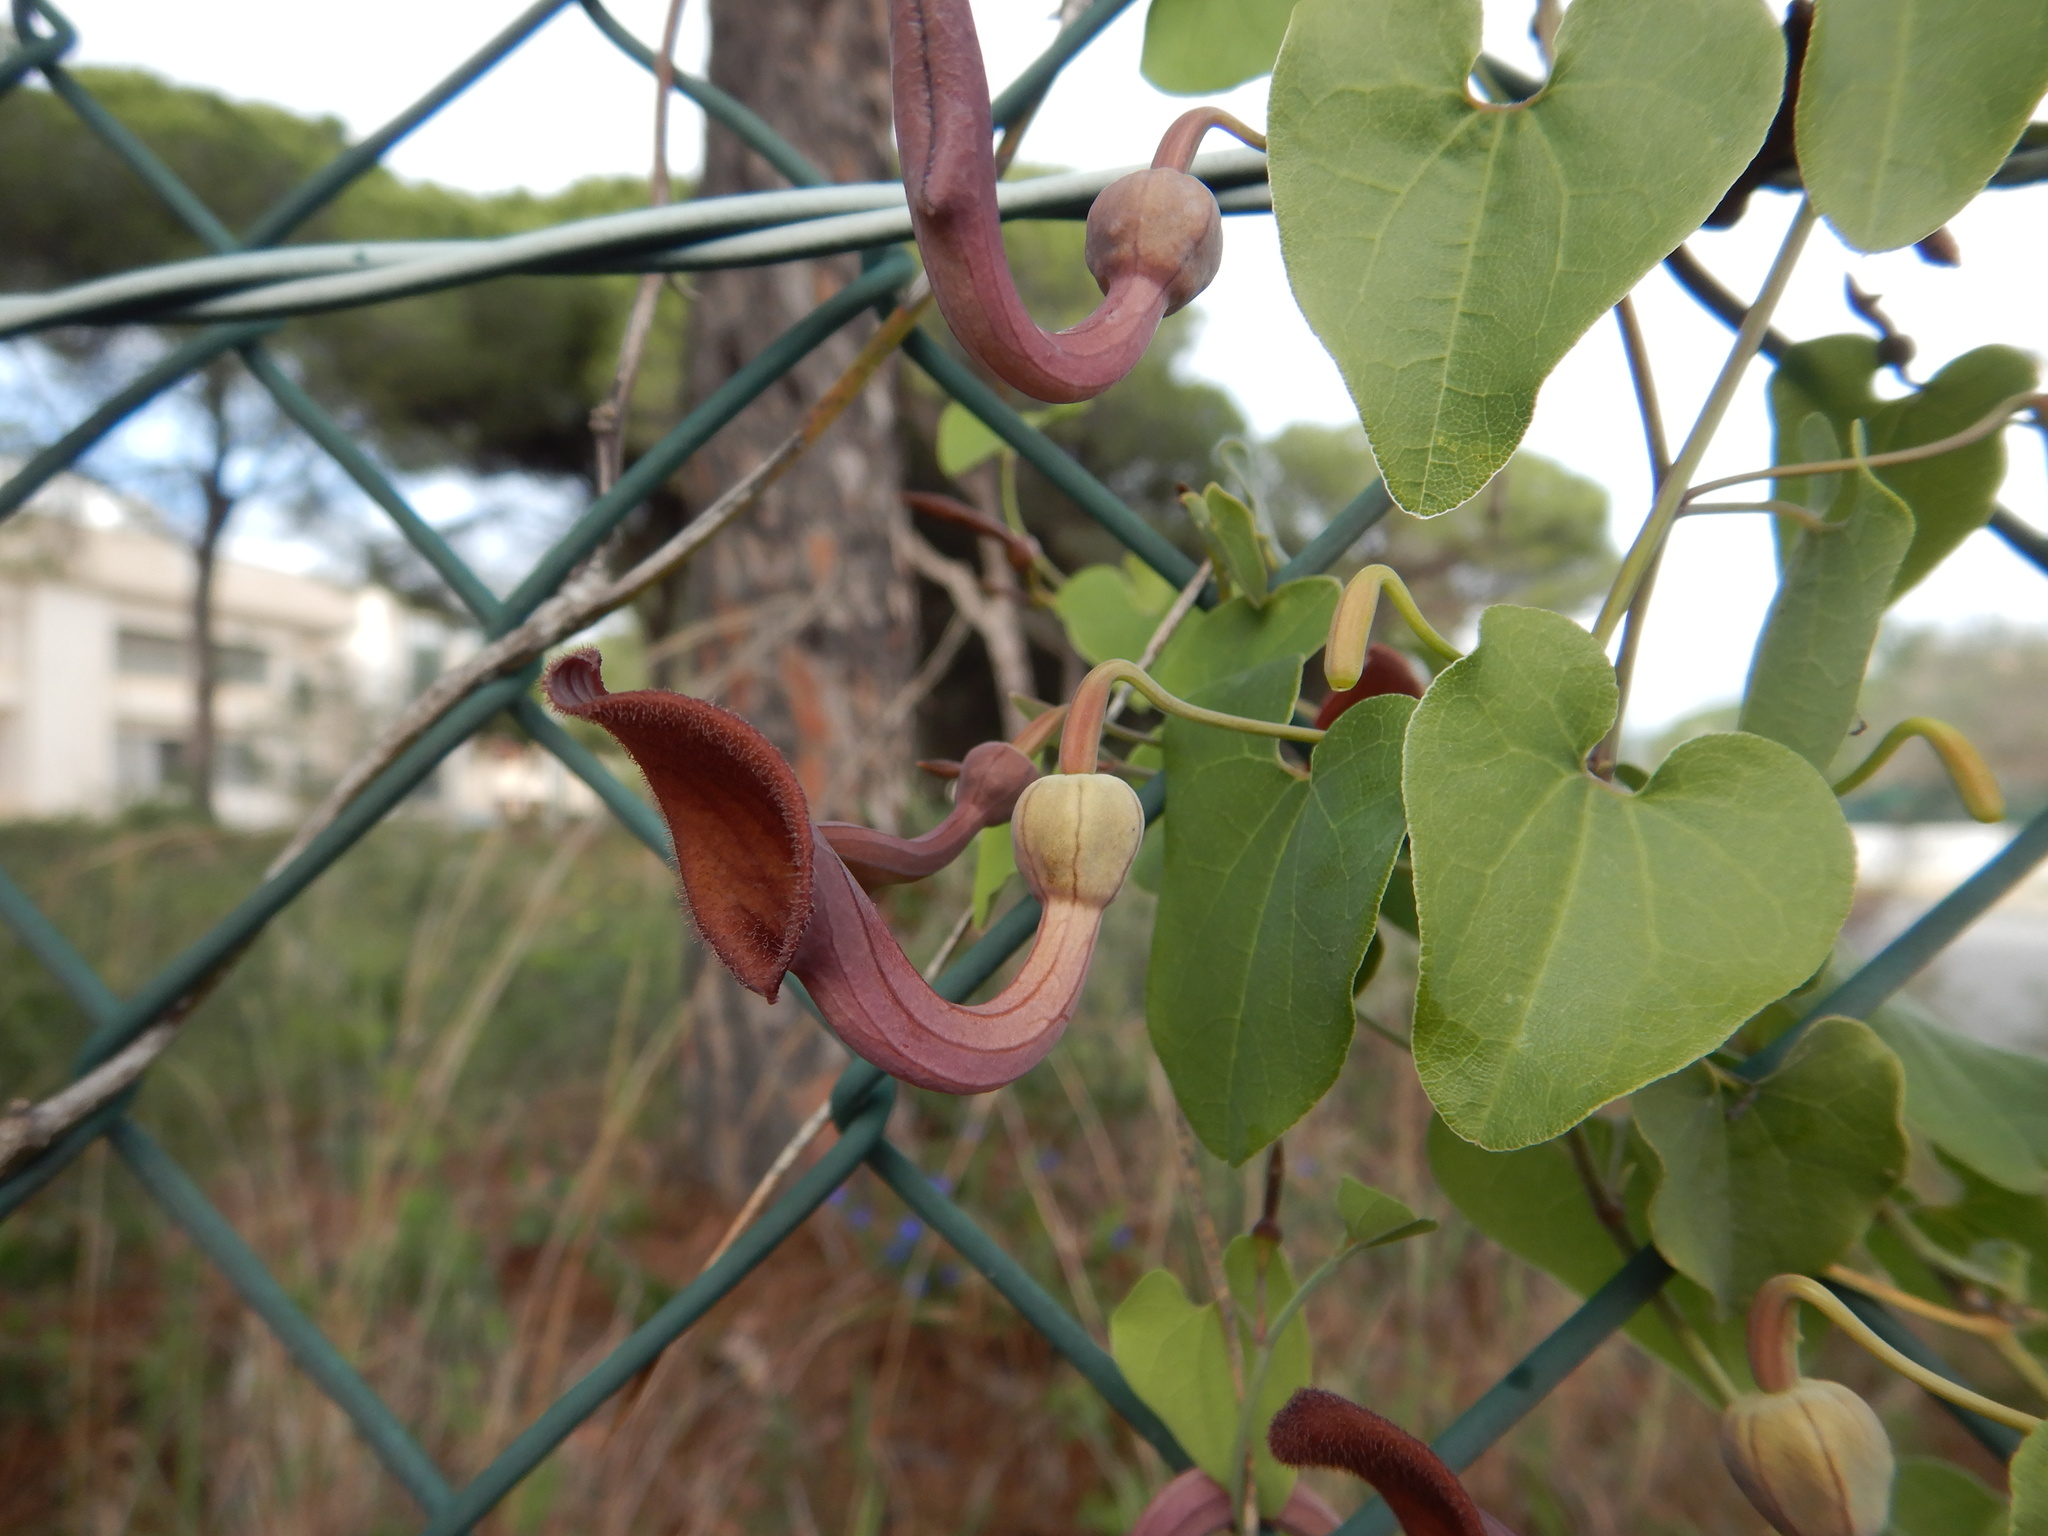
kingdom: Plantae
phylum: Tracheophyta
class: Magnoliopsida
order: Piperales
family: Aristolochiaceae
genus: Aristolochia
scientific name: Aristolochia baetica
